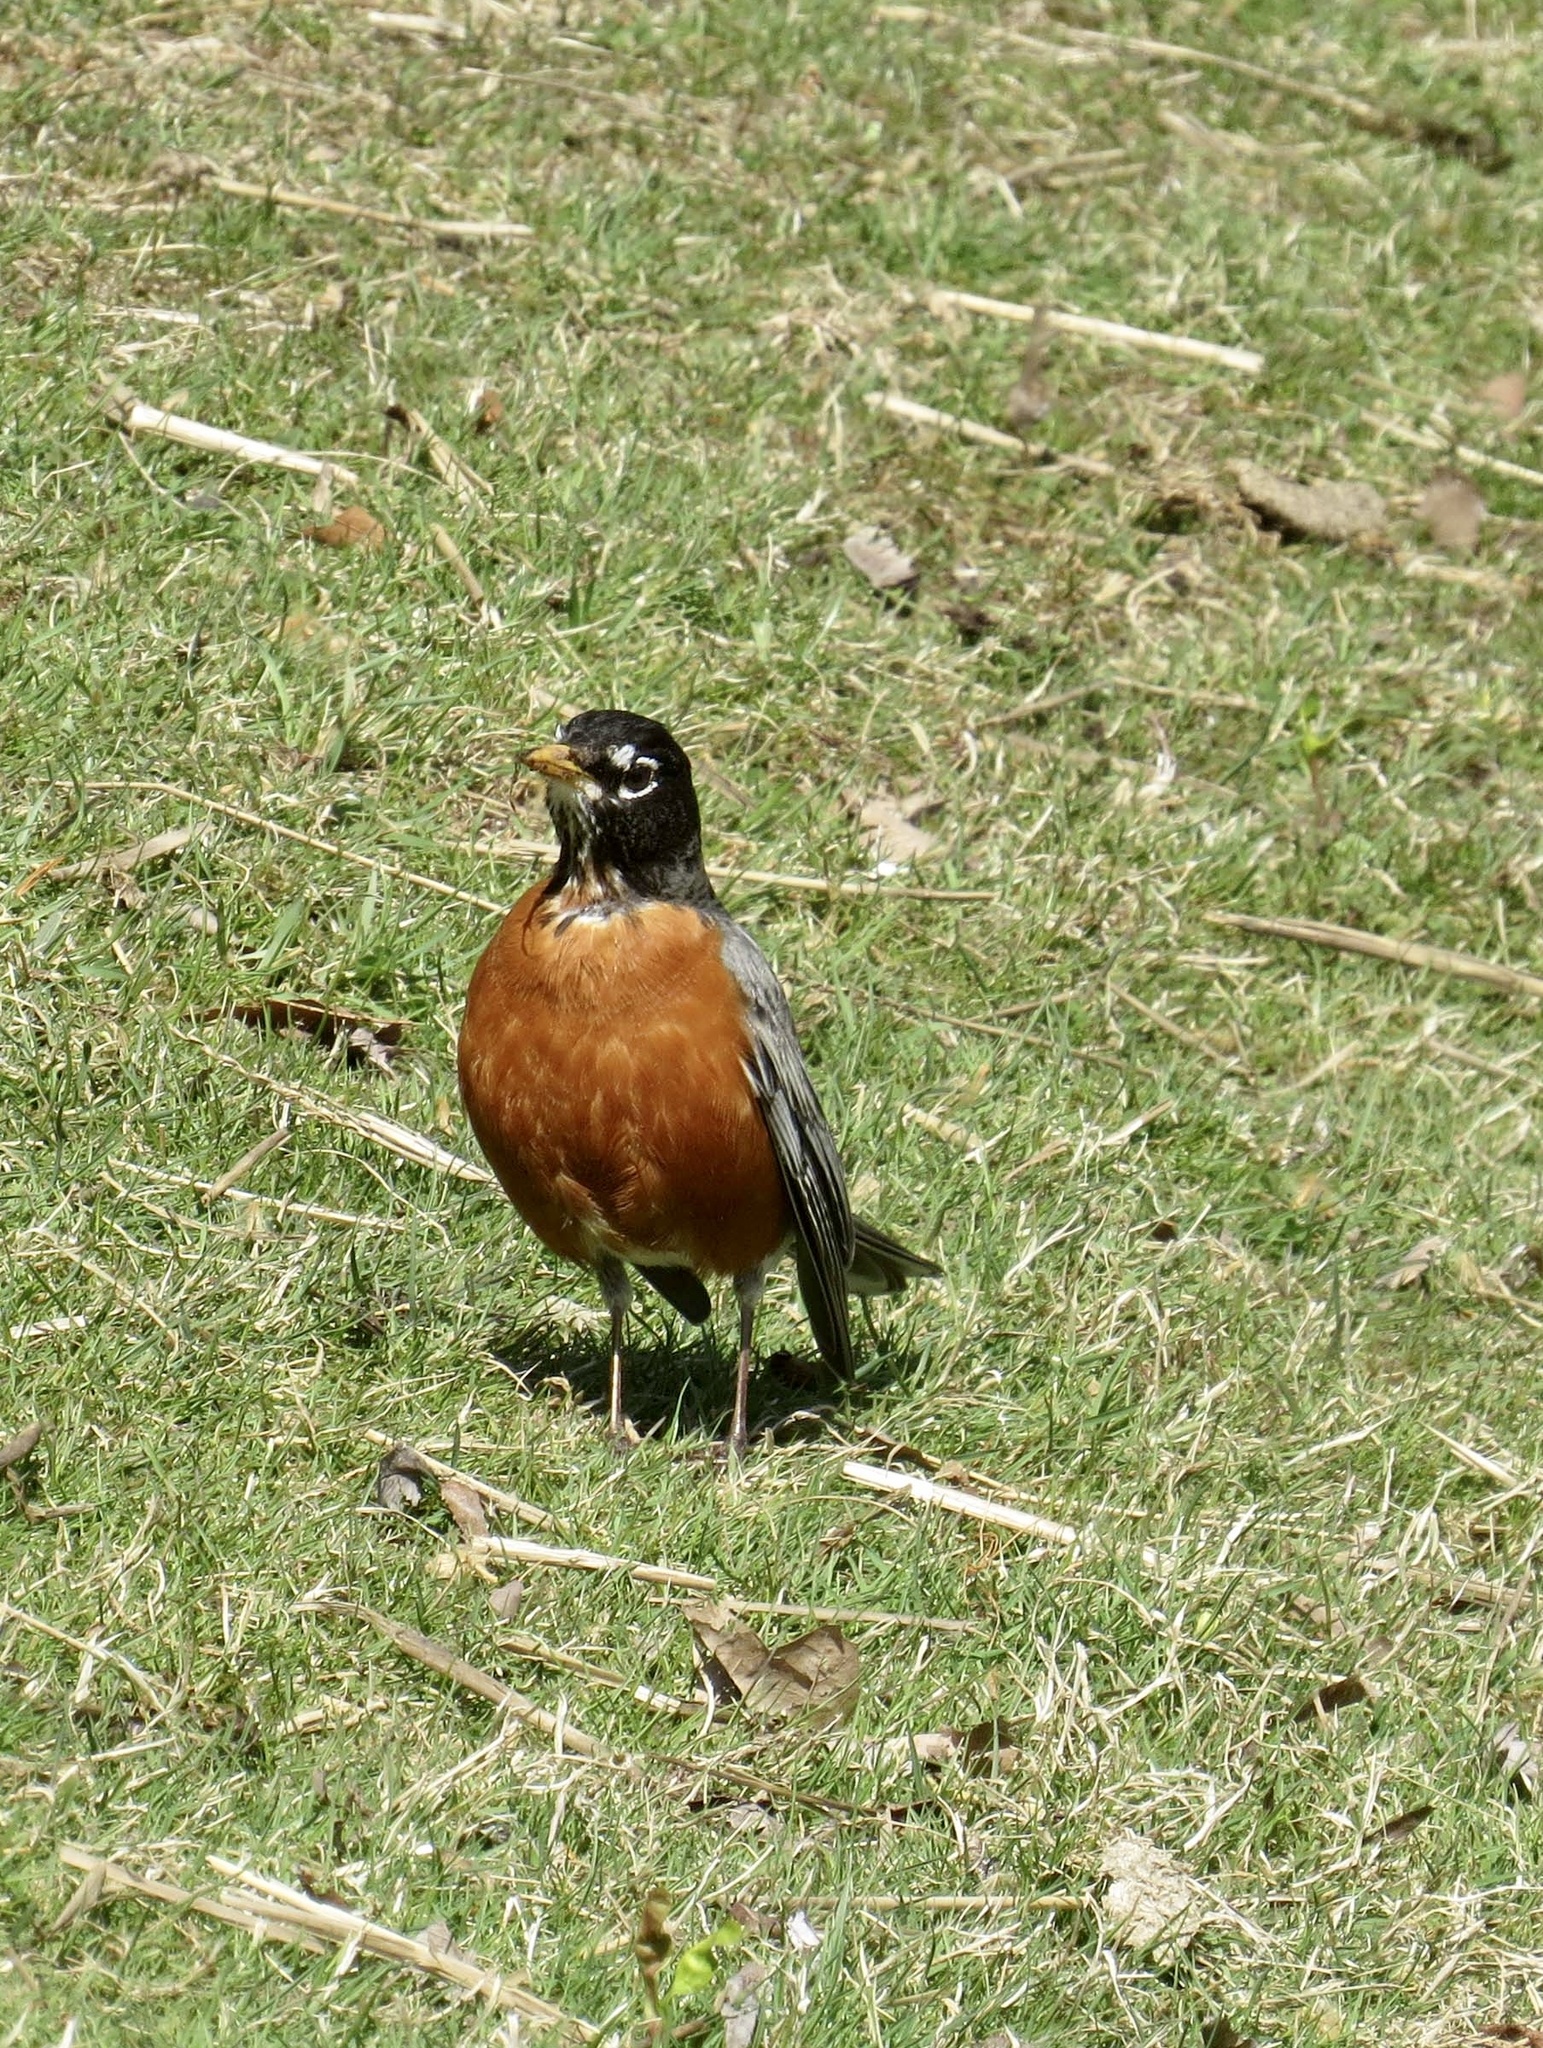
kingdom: Animalia
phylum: Chordata
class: Aves
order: Passeriformes
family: Turdidae
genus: Turdus
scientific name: Turdus migratorius
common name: American robin
